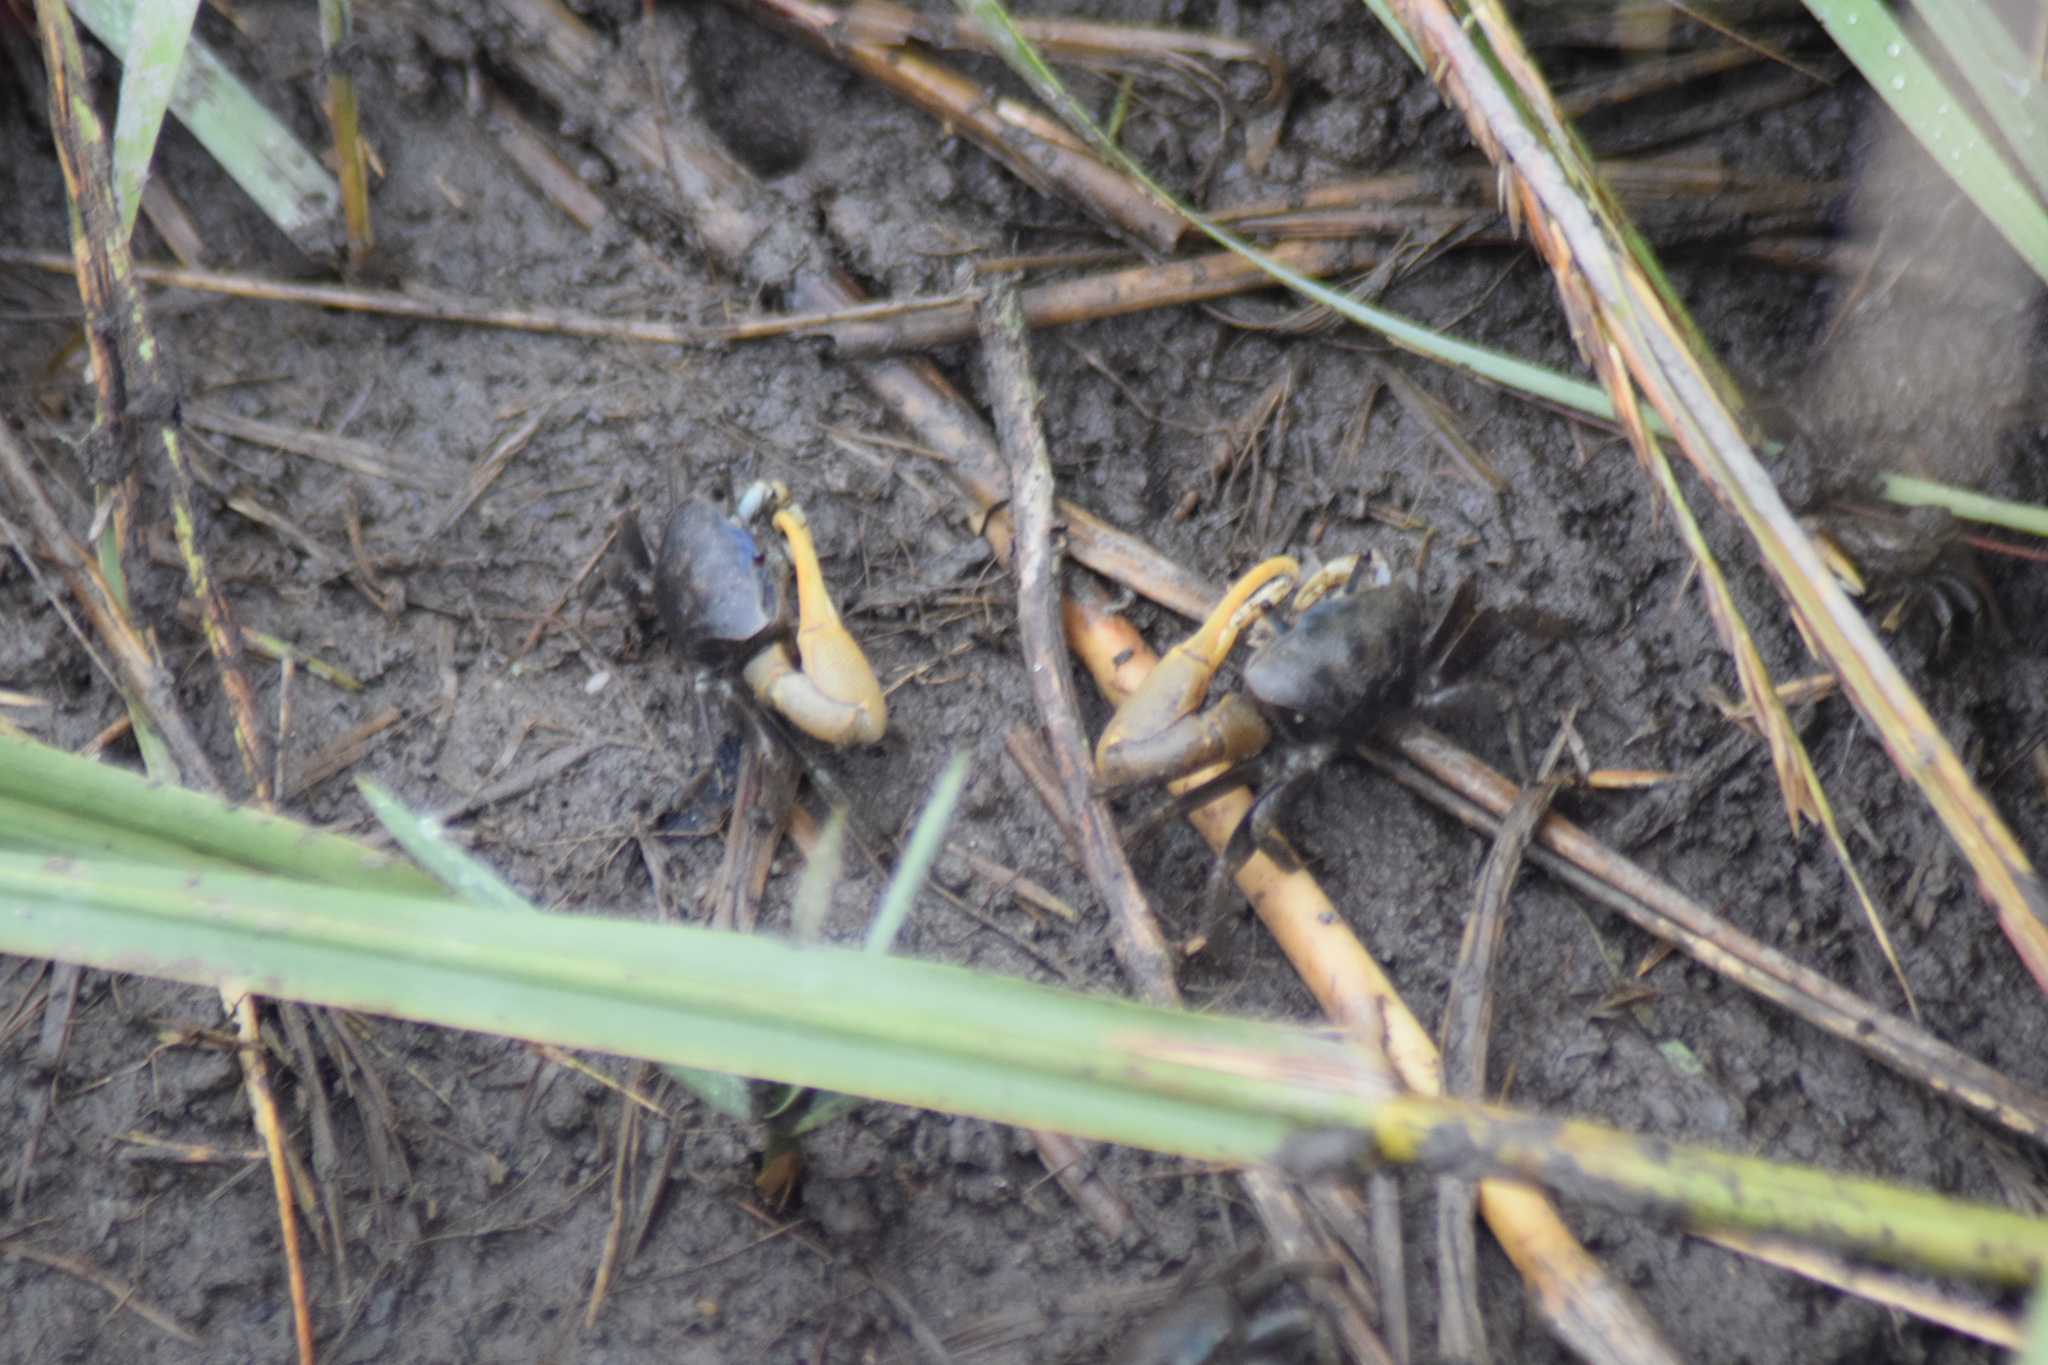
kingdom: Animalia
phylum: Arthropoda
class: Malacostraca
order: Decapoda
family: Ocypodidae
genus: Minuca
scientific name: Minuca pugnax
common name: Mud fiddler crab
